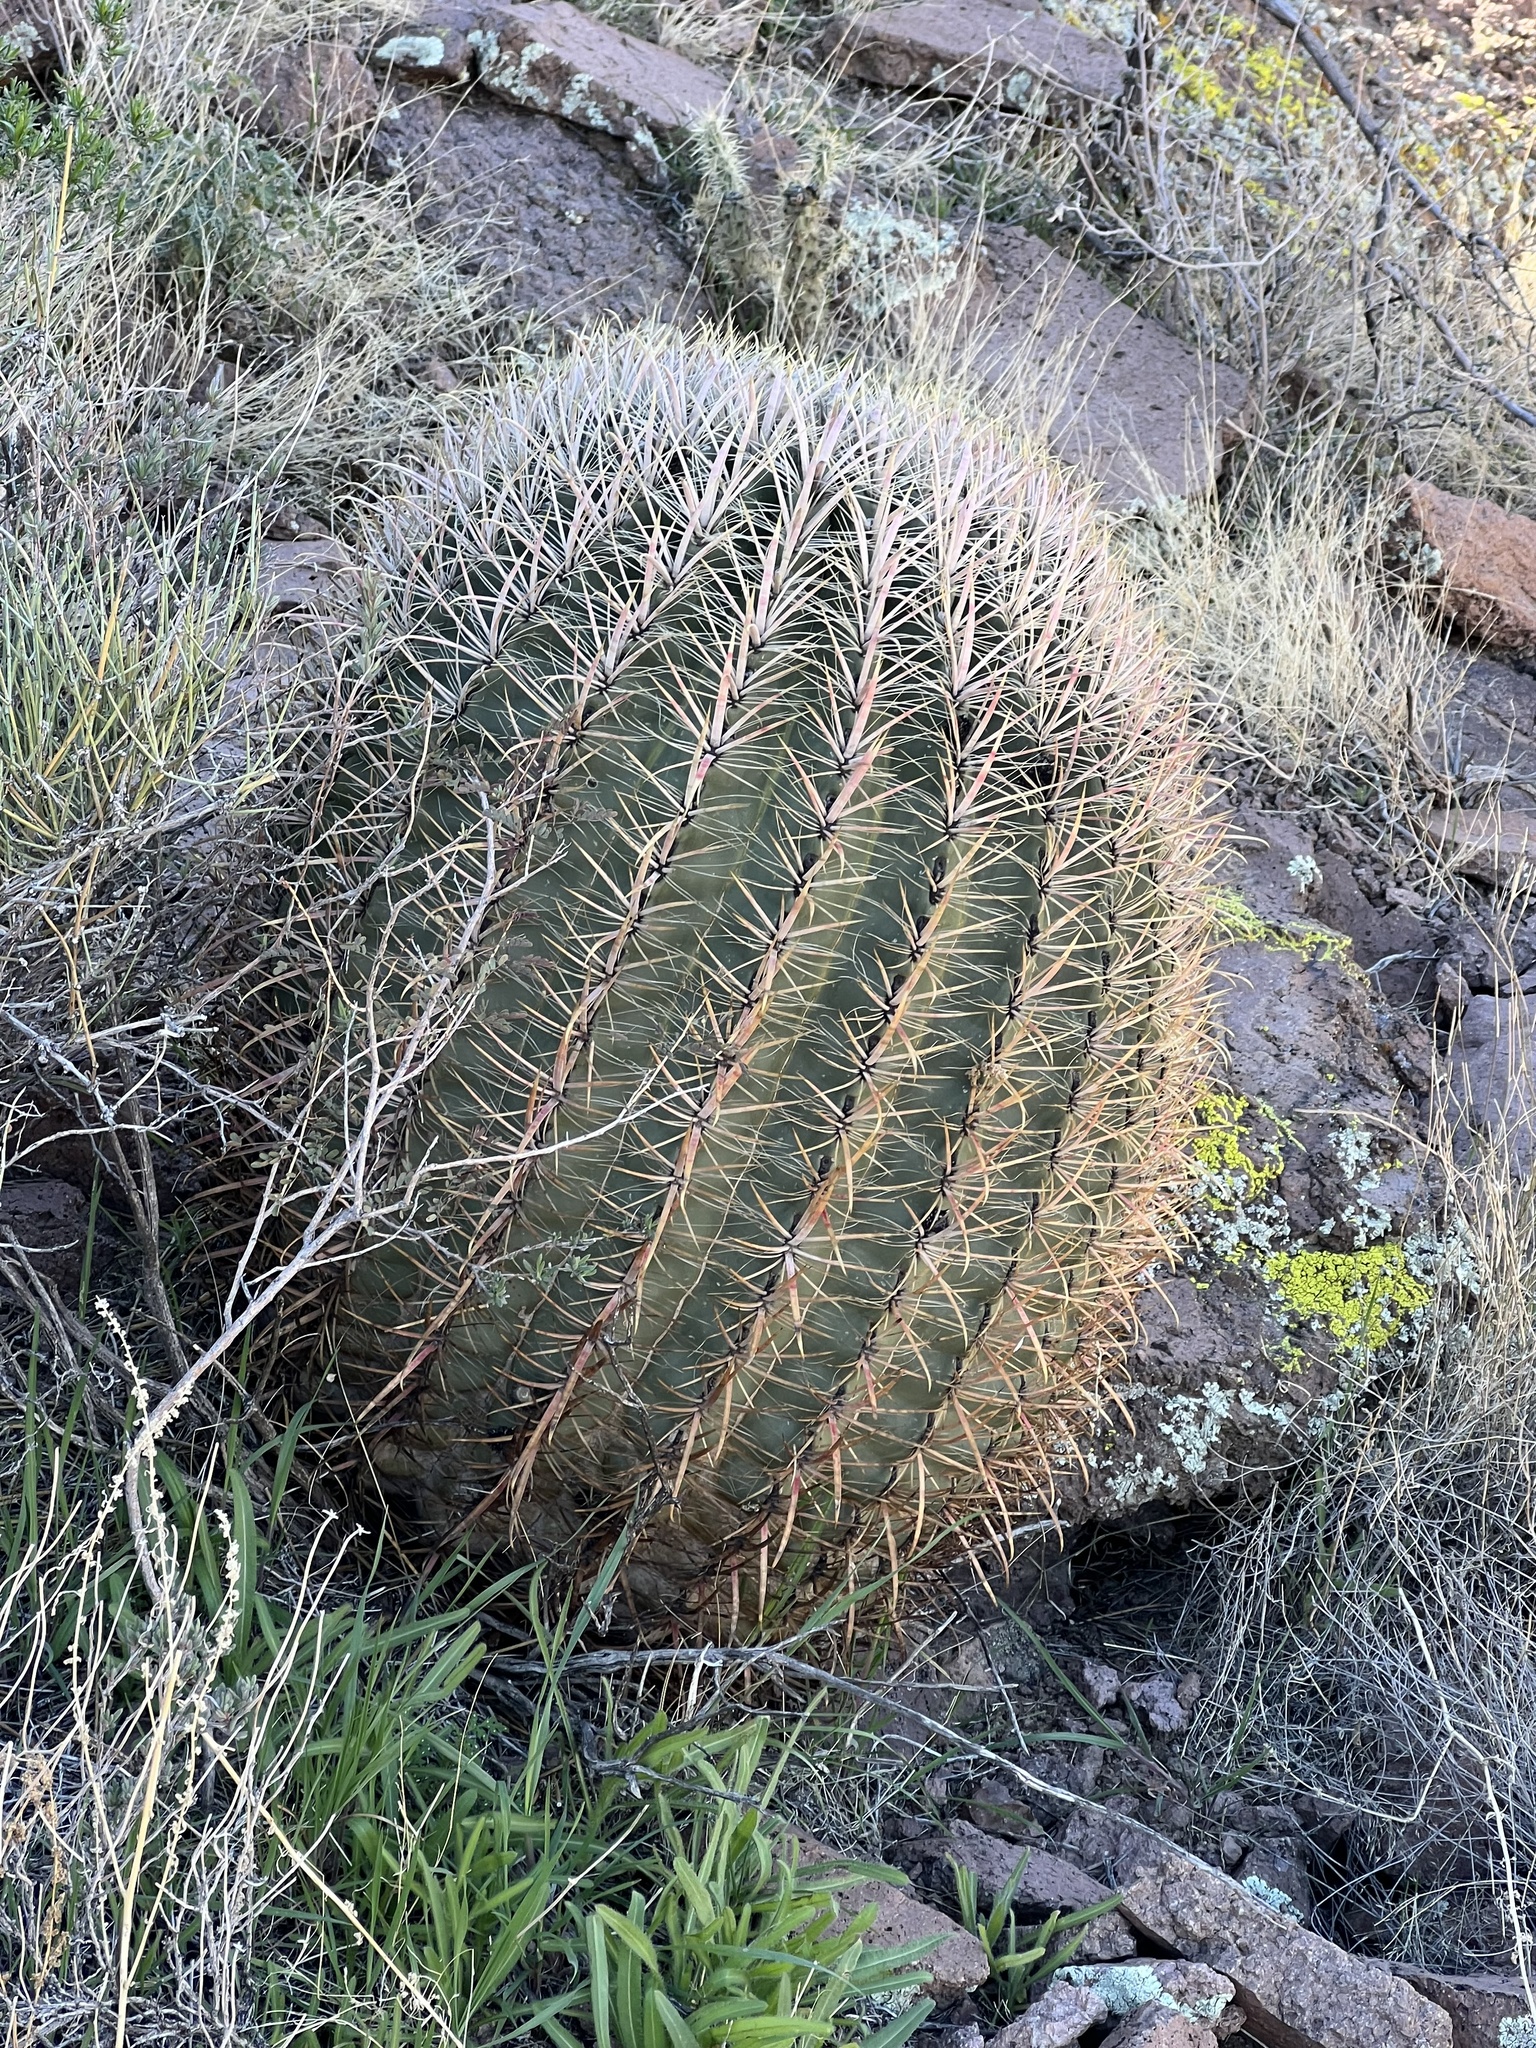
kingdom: Plantae
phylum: Tracheophyta
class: Magnoliopsida
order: Caryophyllales
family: Cactaceae
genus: Ferocactus
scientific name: Ferocactus cylindraceus
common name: California barrel cactus
